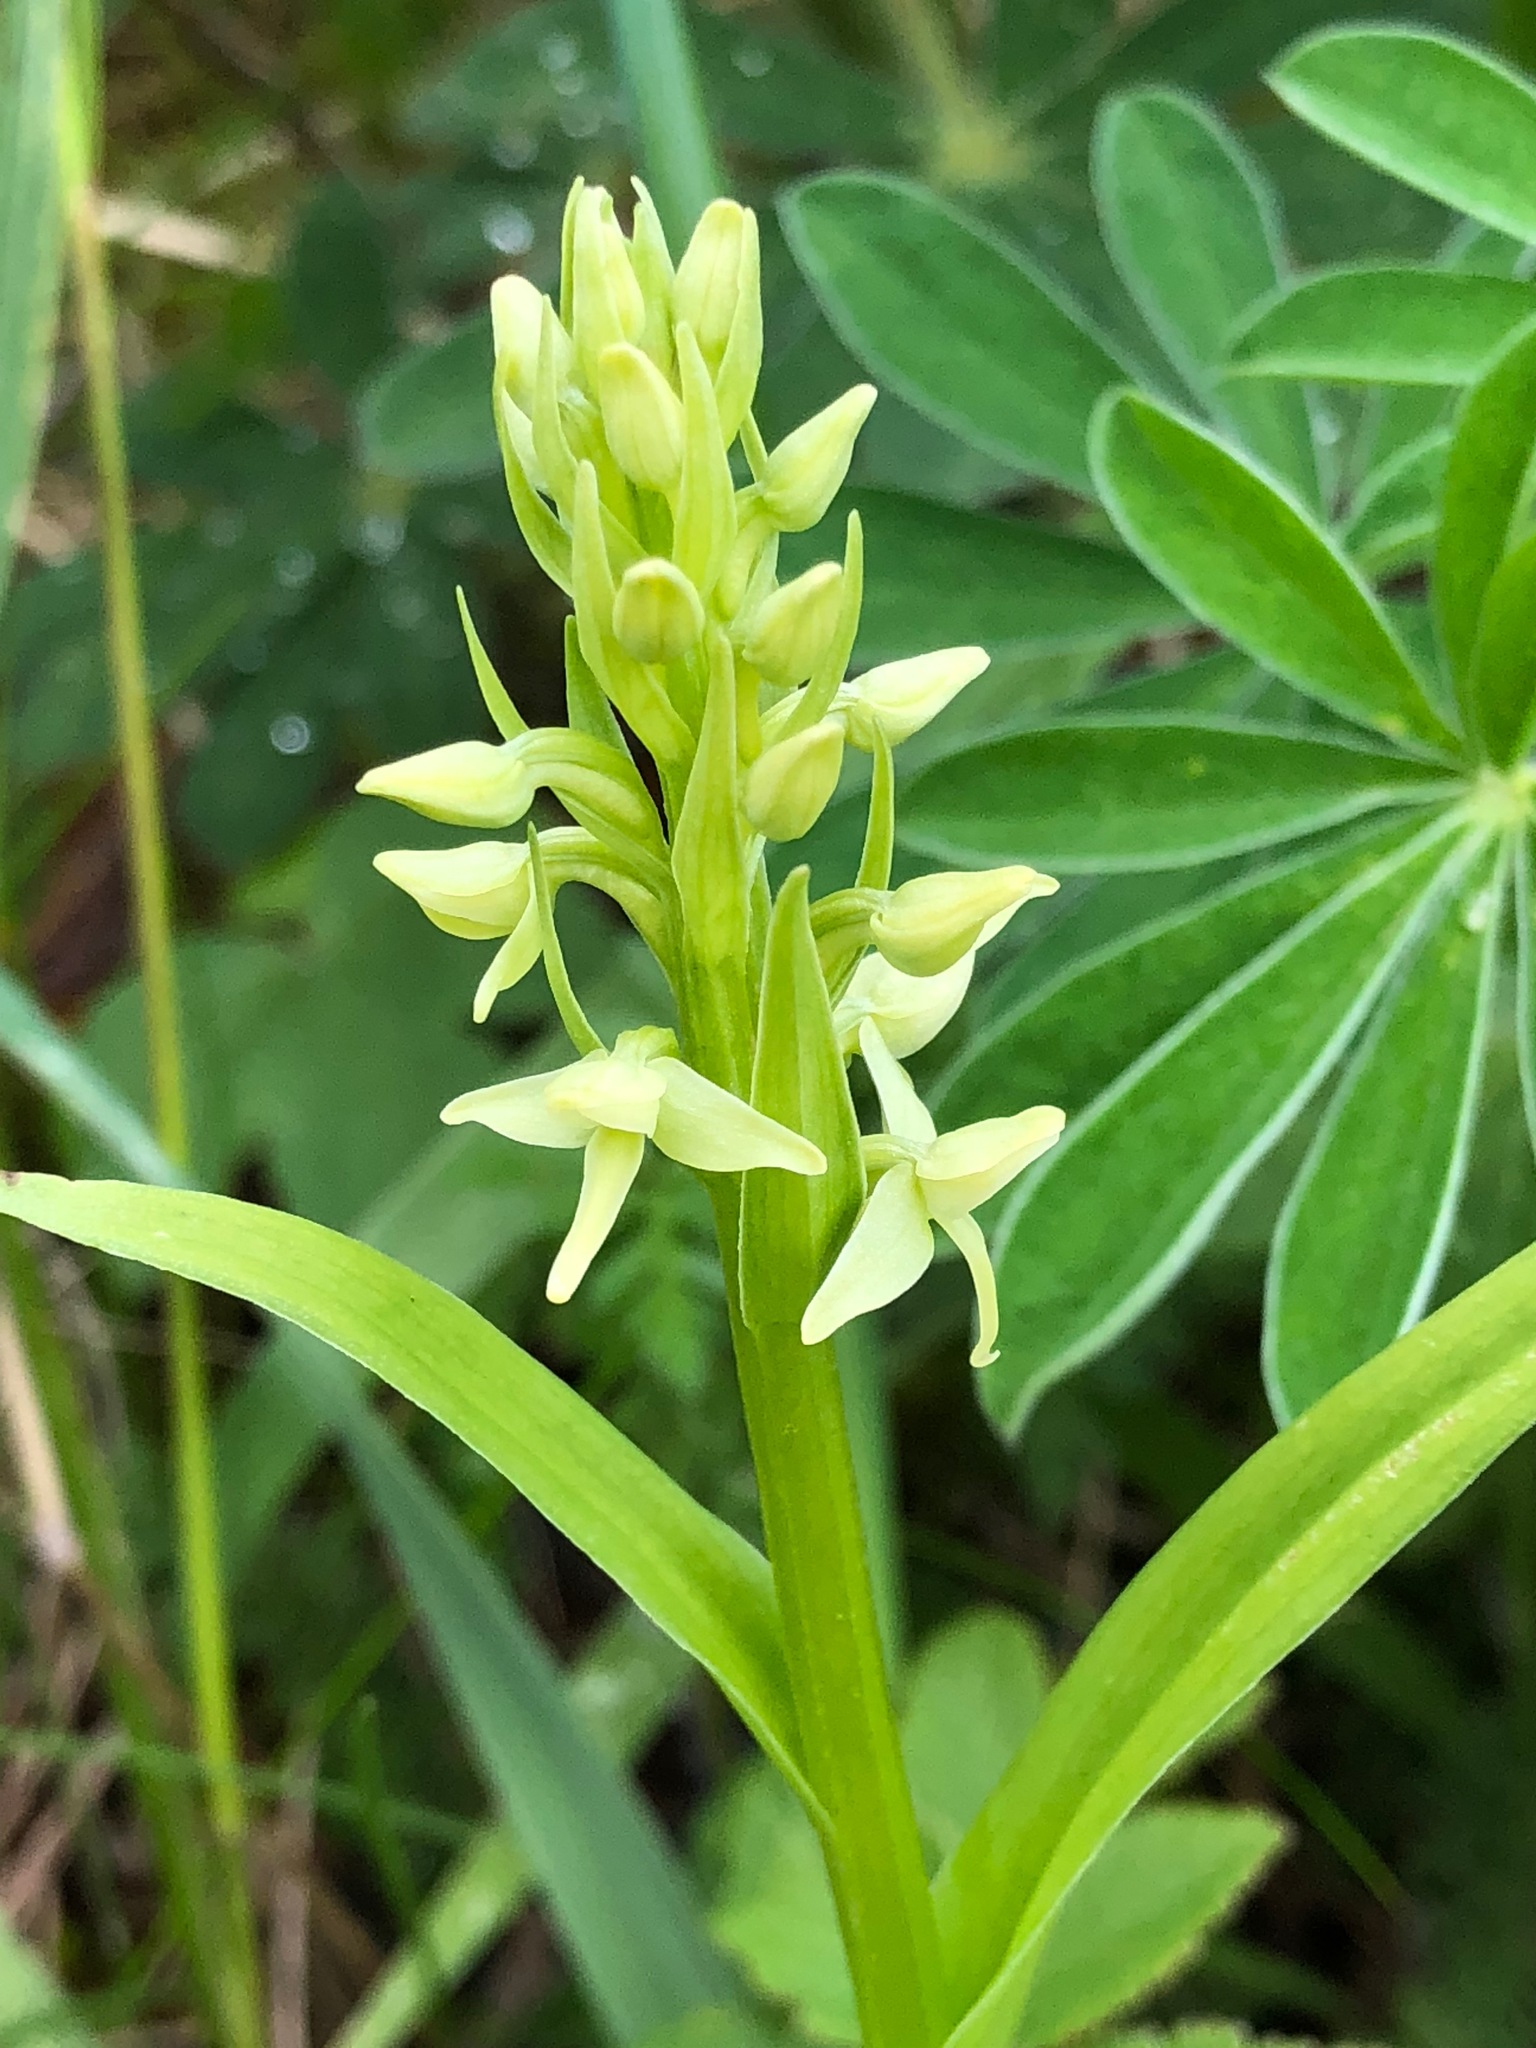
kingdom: Plantae
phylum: Tracheophyta
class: Liliopsida
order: Asparagales
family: Orchidaceae
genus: Platanthera
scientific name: Platanthera convallariifolia
